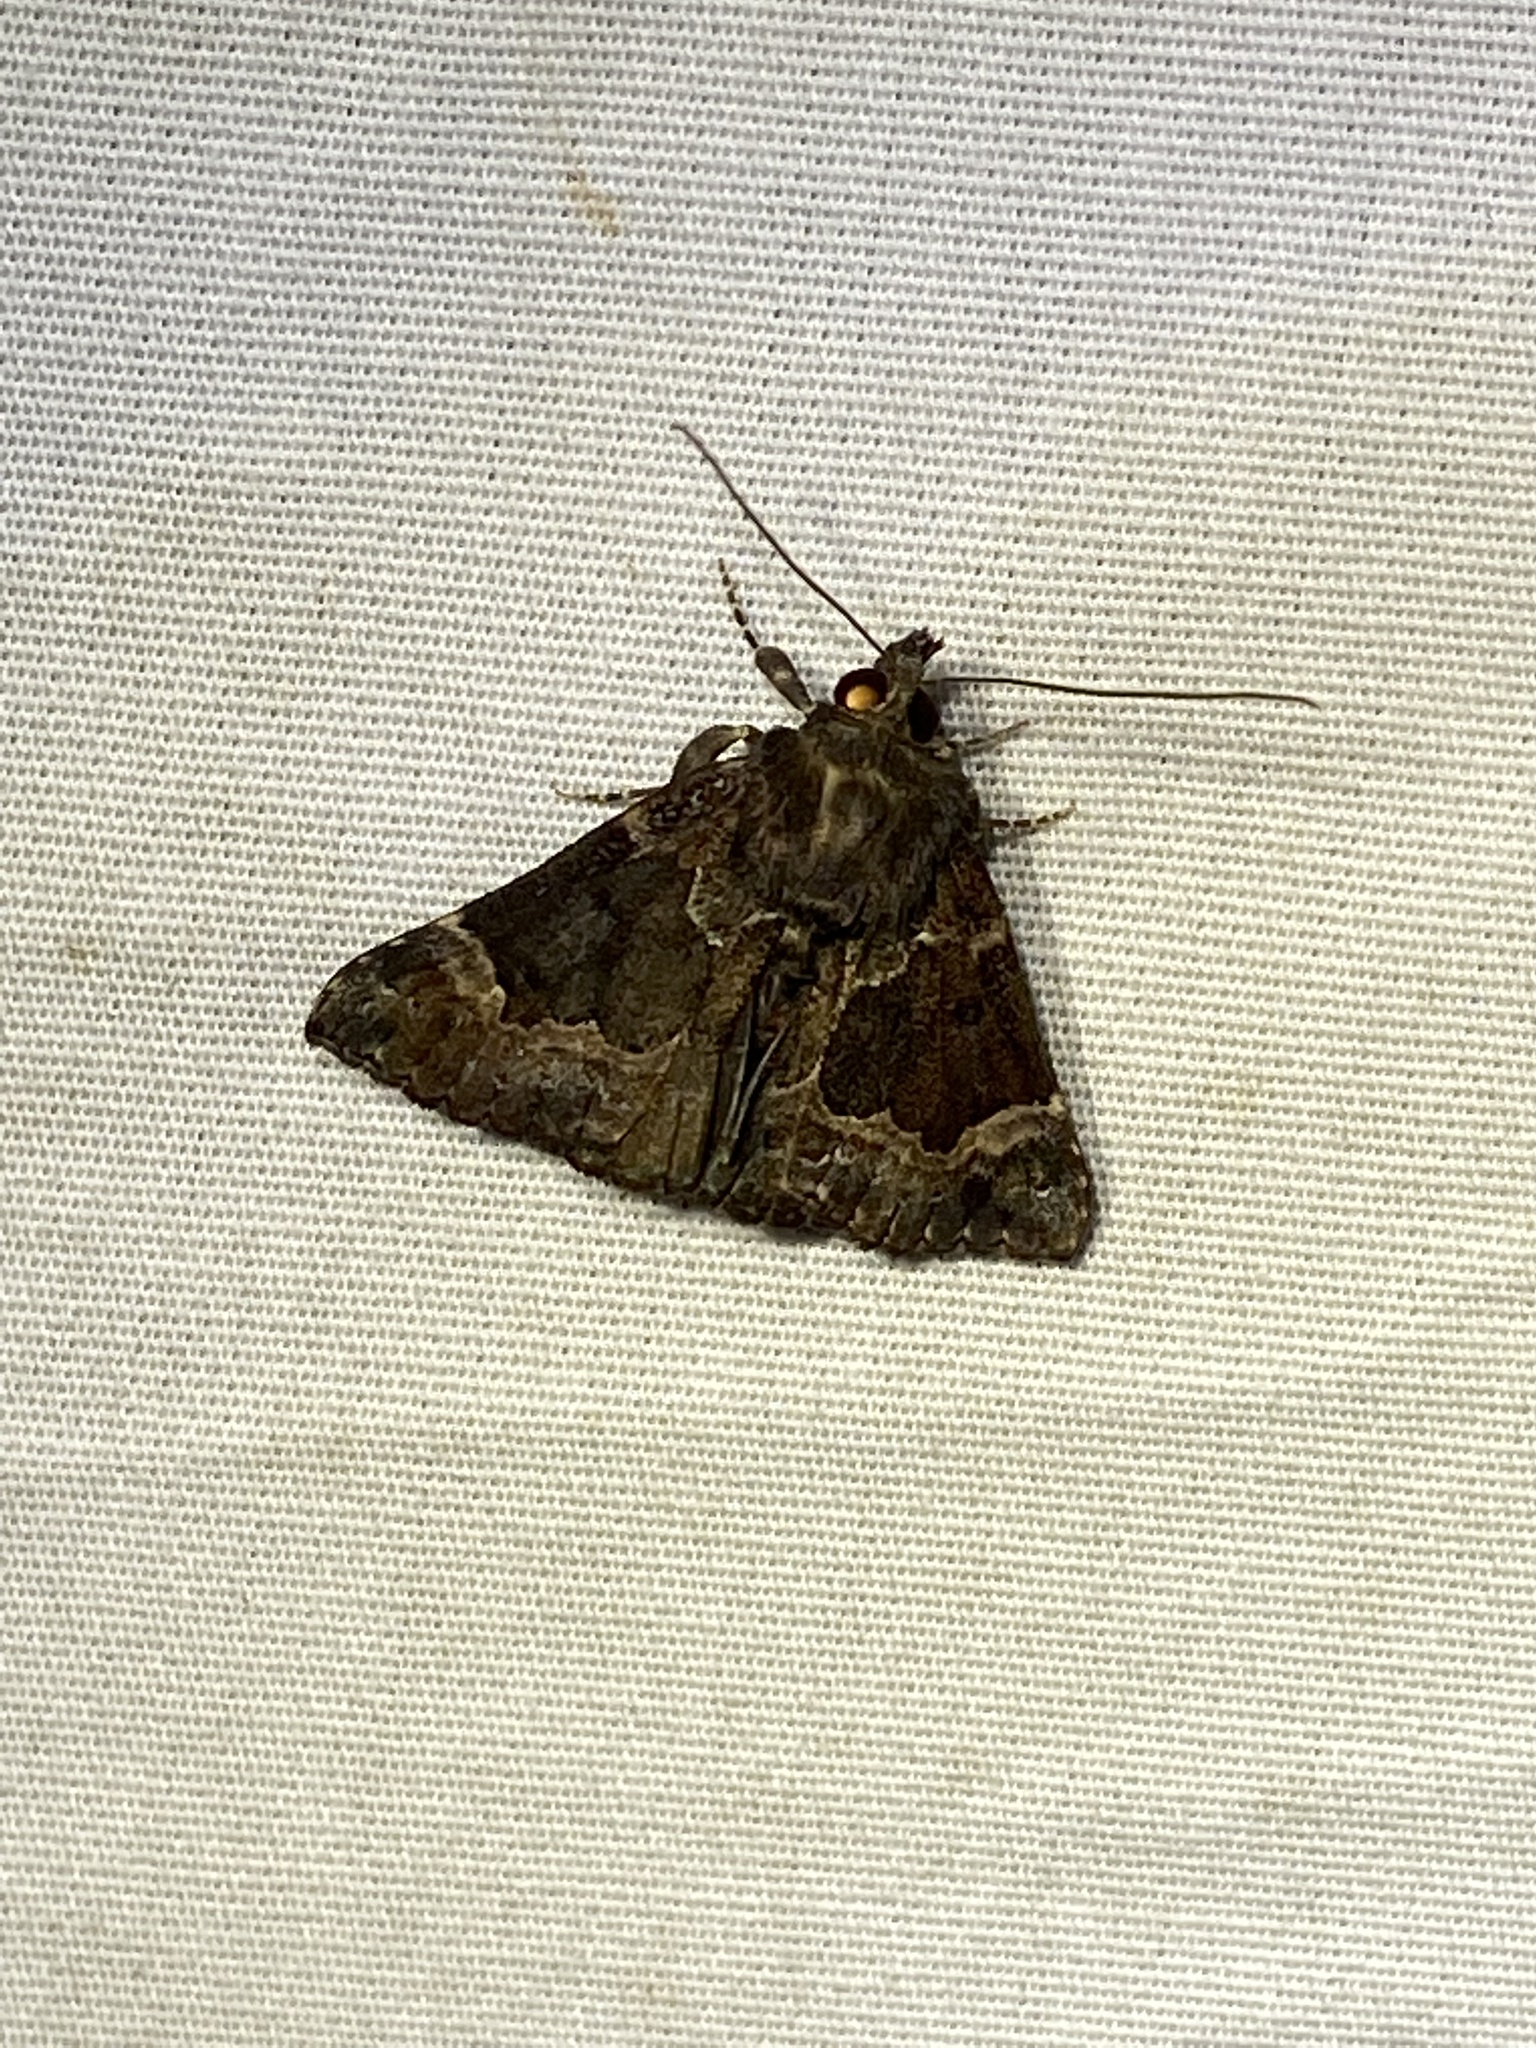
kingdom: Animalia
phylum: Arthropoda
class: Insecta
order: Lepidoptera
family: Erebidae
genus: Hypena
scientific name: Hypena palparia
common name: Mottled bomolocha moth
